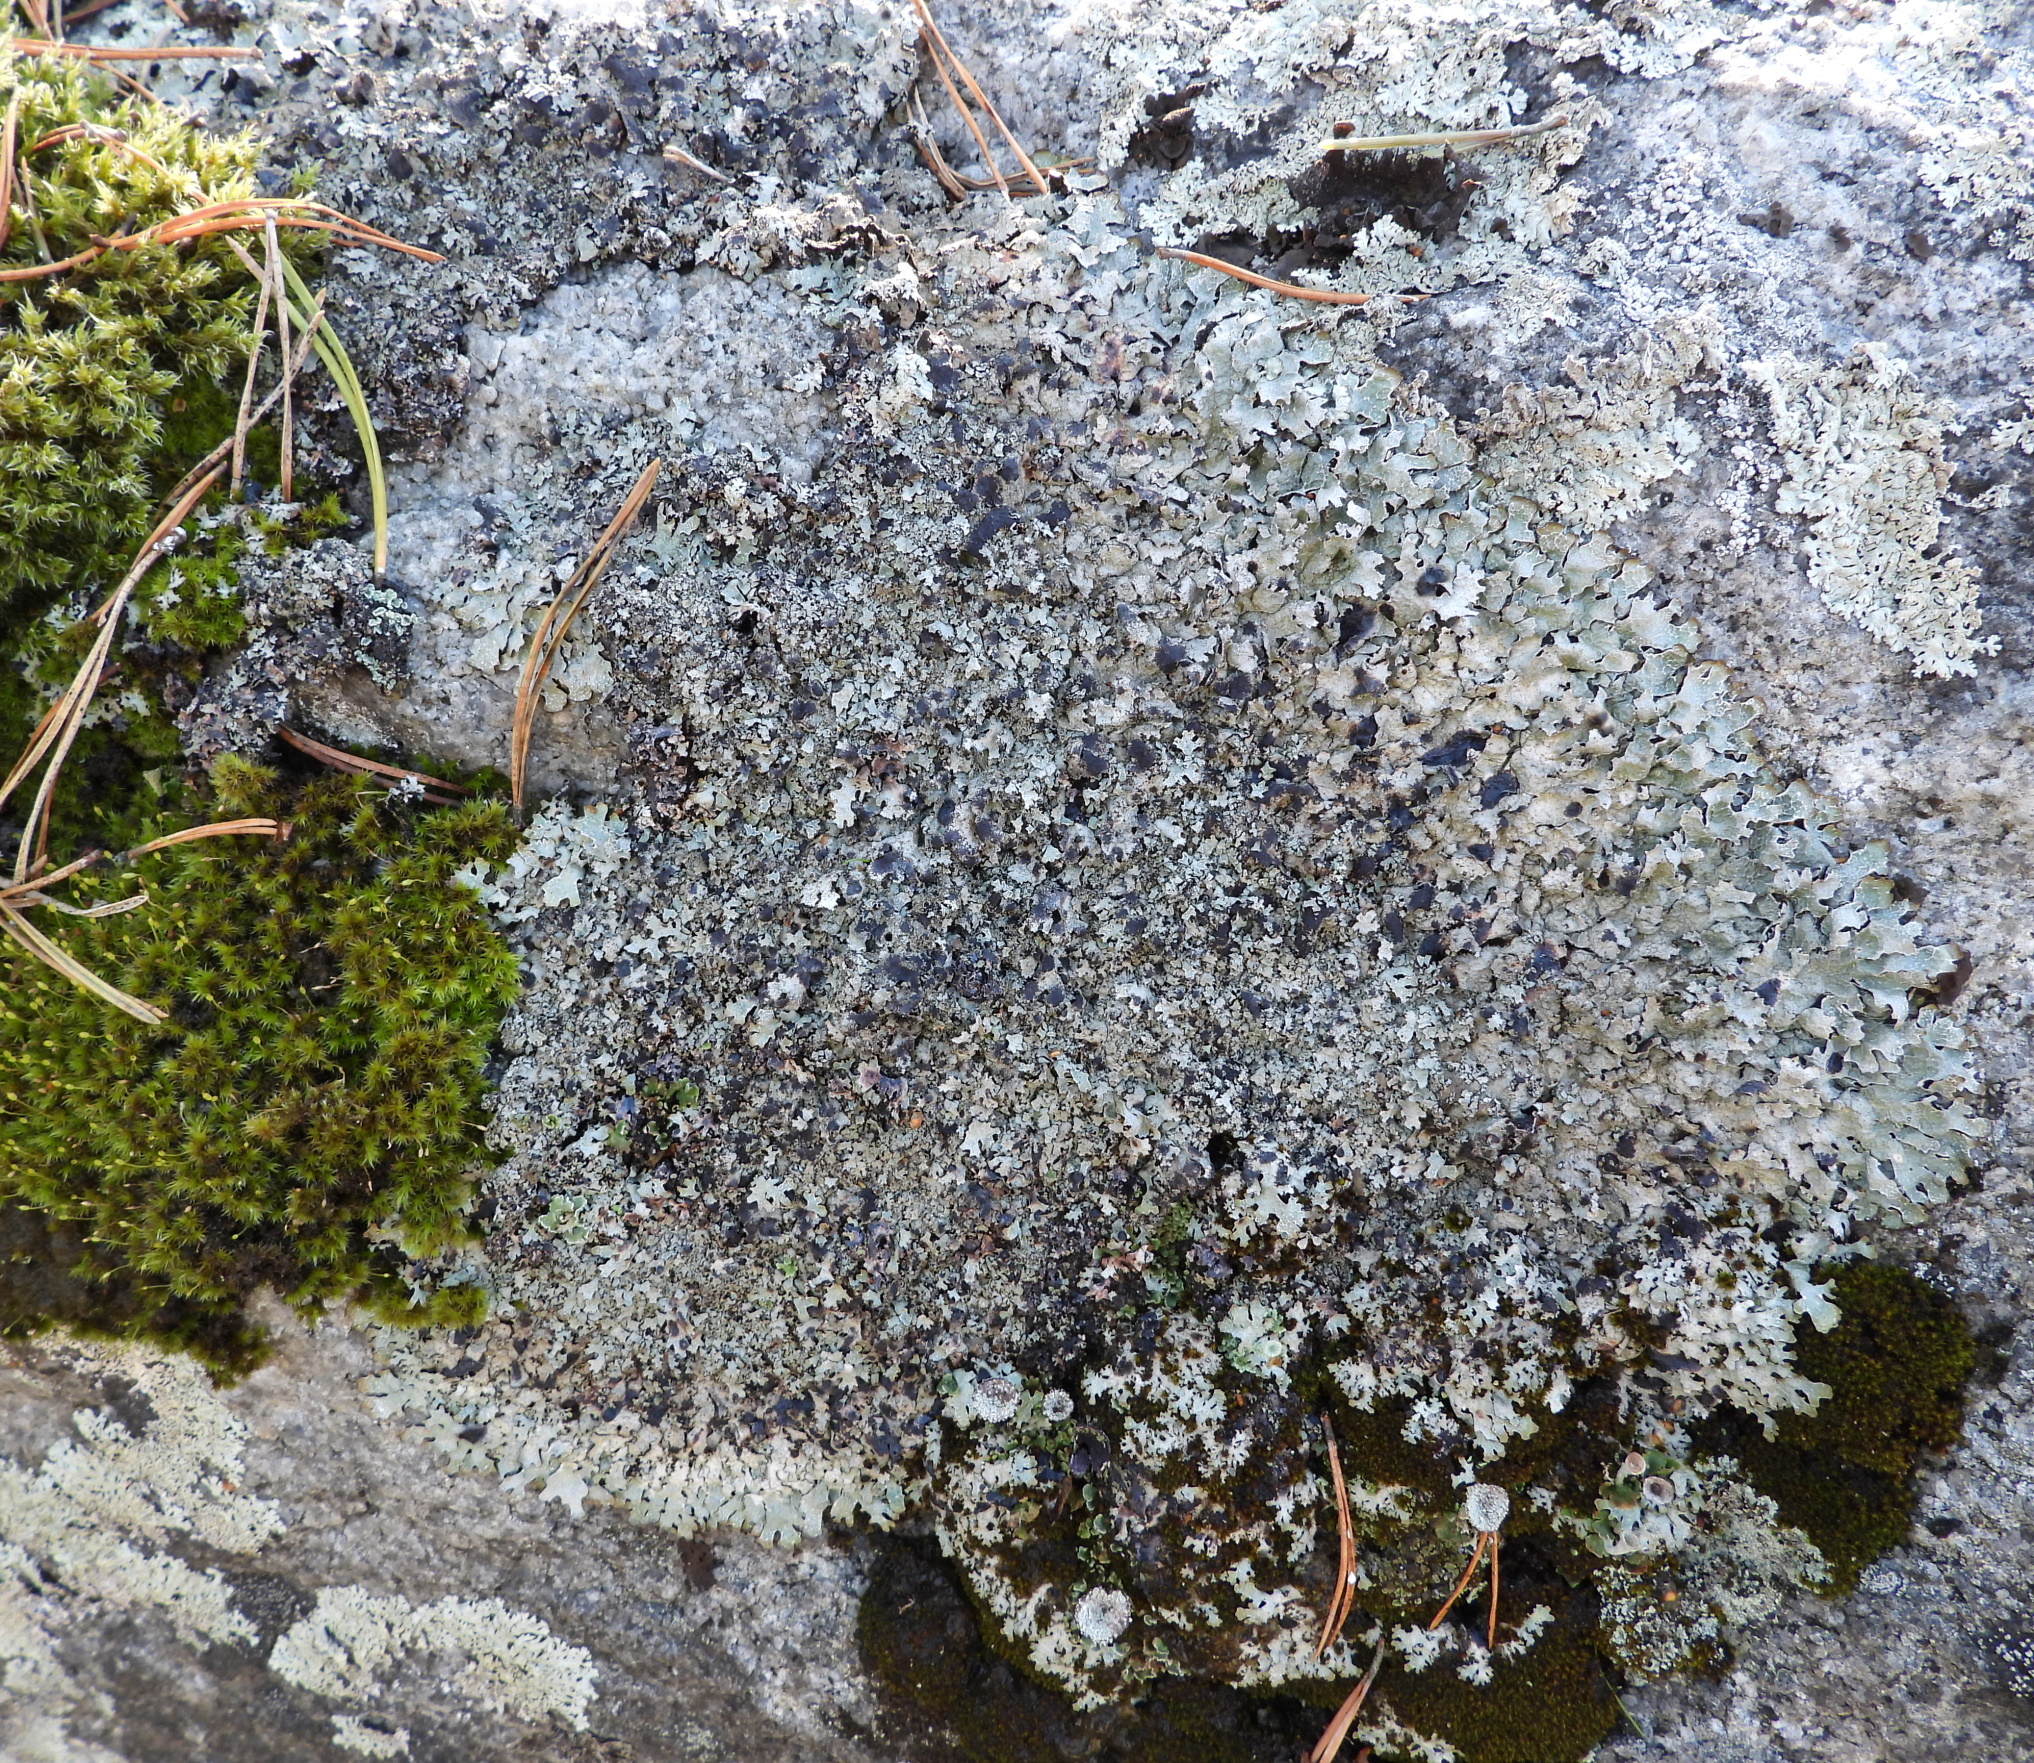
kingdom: Fungi
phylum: Ascomycota
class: Dothideomycetes
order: Dothideales
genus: Homostegia
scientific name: Homostegia piggotii
